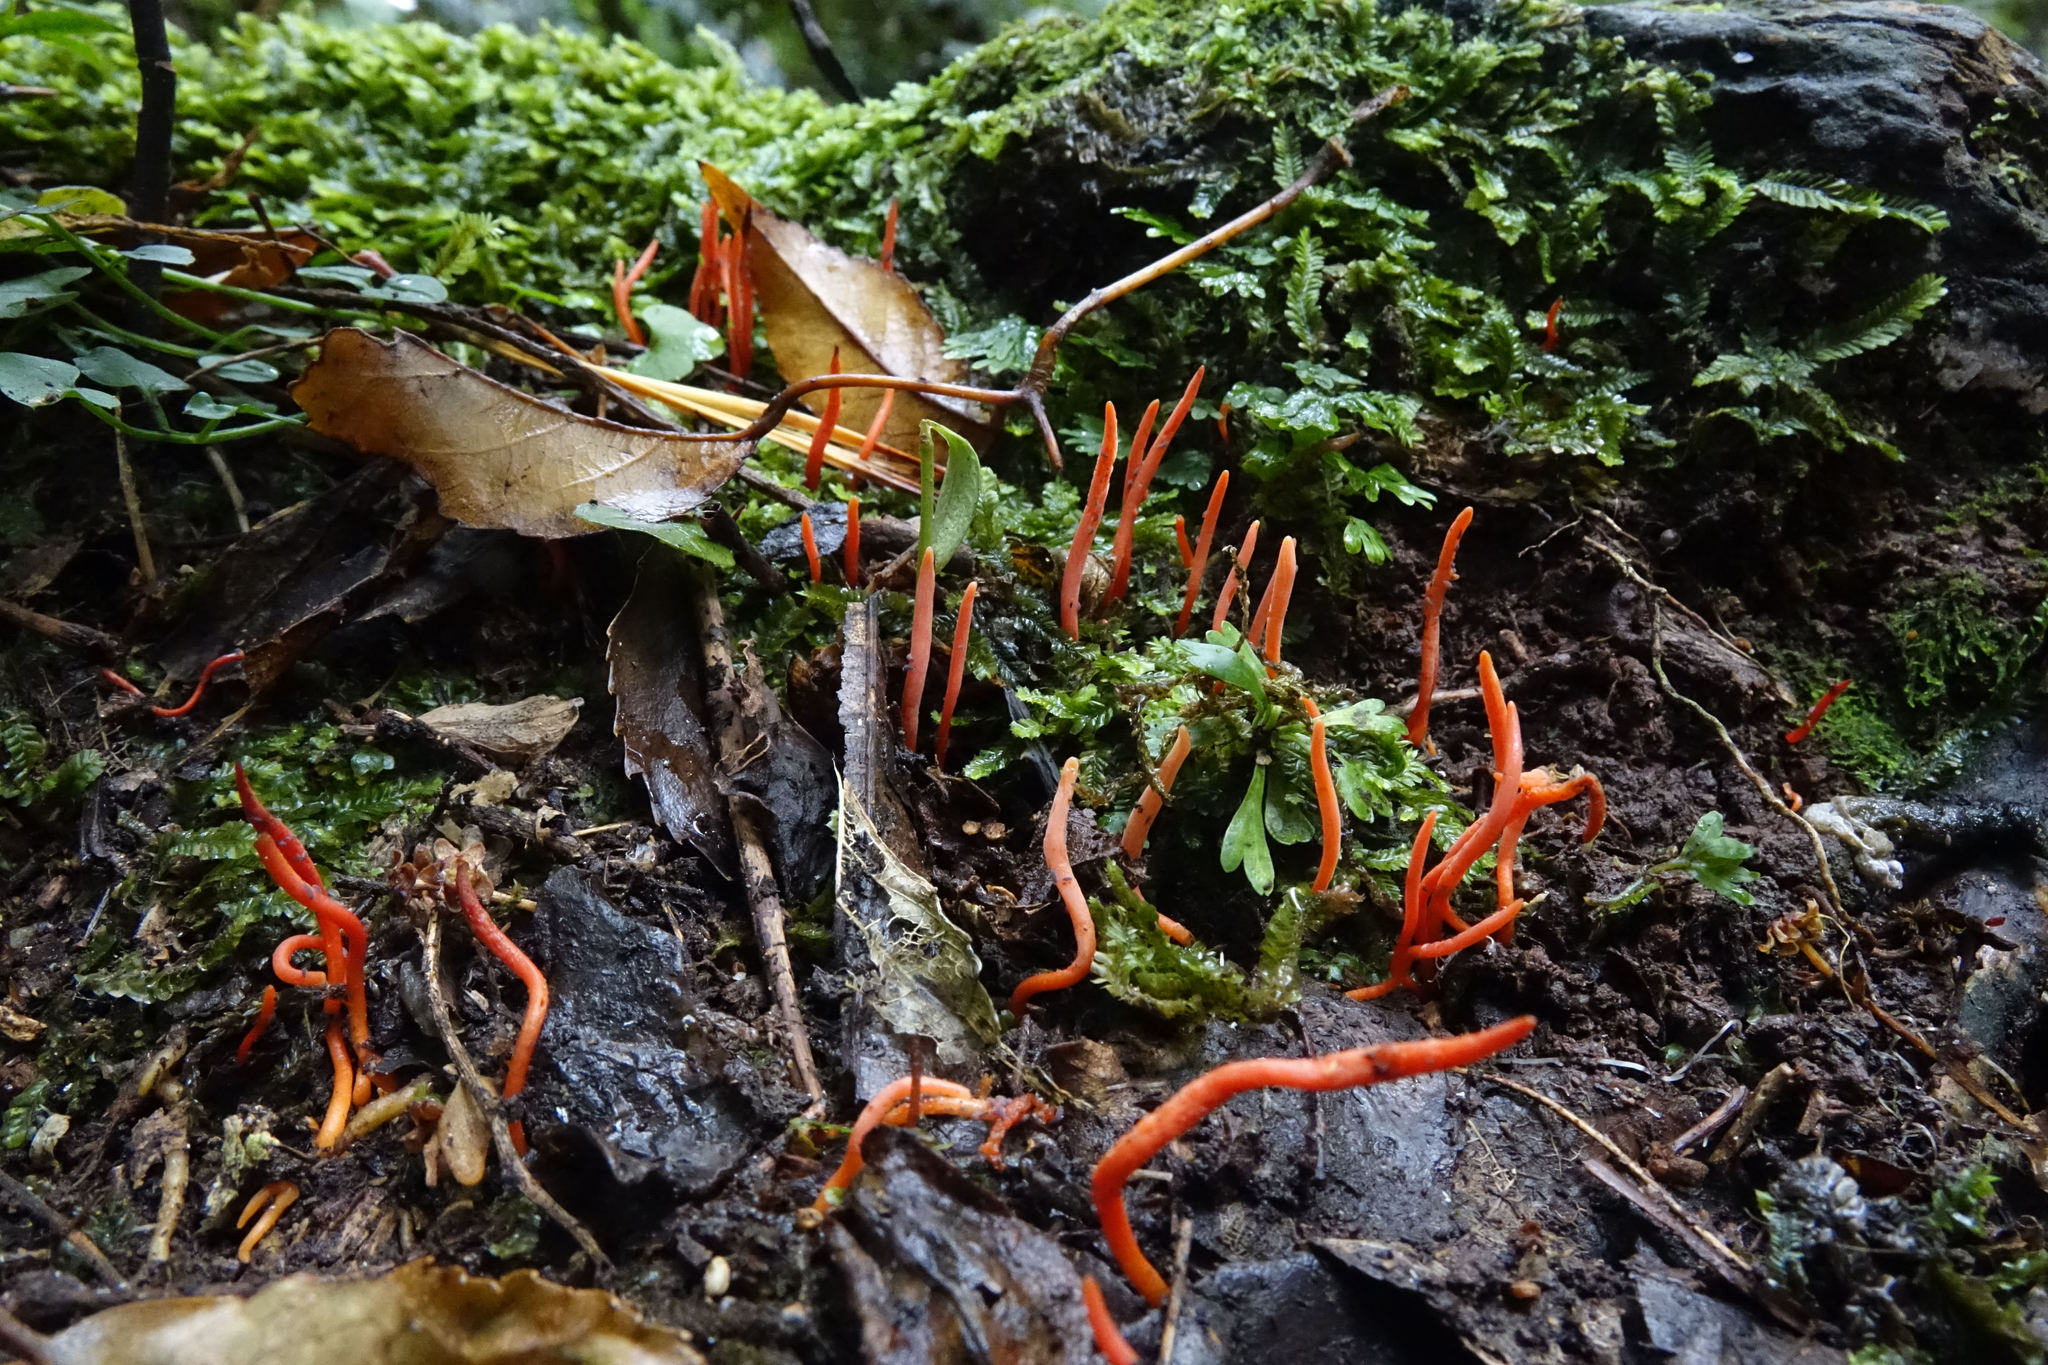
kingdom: Fungi
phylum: Basidiomycota
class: Agaricomycetes
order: Agaricales
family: Clavariaceae
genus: Clavulinopsis
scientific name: Clavulinopsis corallinorosacea
